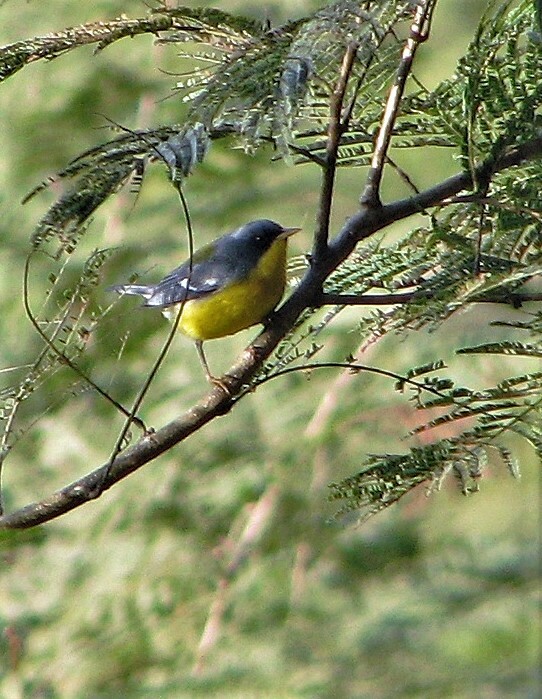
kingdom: Animalia
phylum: Chordata
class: Aves
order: Passeriformes
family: Parulidae
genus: Setophaga
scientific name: Setophaga pitiayumi
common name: Tropical parula
